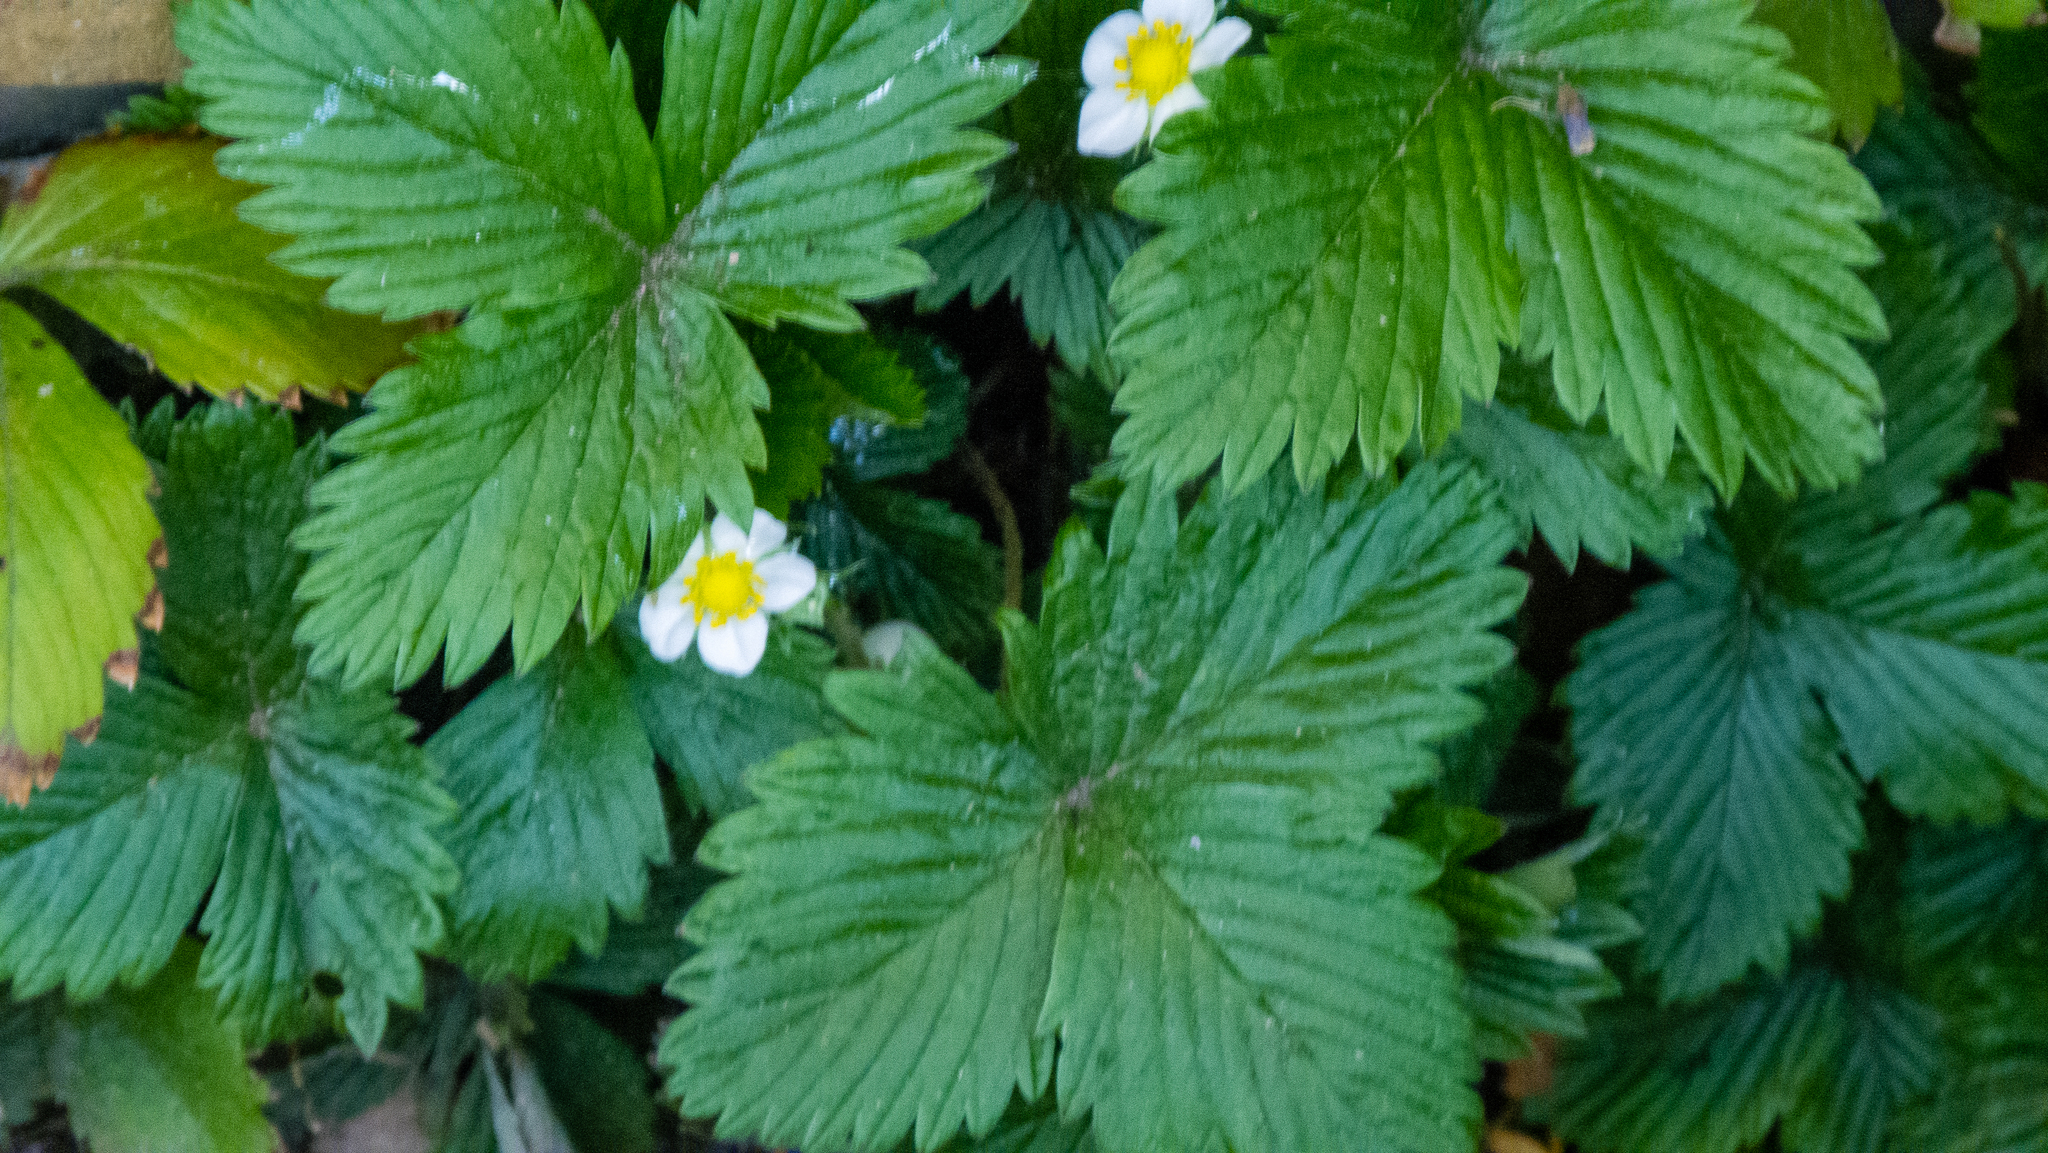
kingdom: Plantae
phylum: Tracheophyta
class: Magnoliopsida
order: Rosales
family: Rosaceae
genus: Fragaria
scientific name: Fragaria vesca
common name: Wild strawberry
